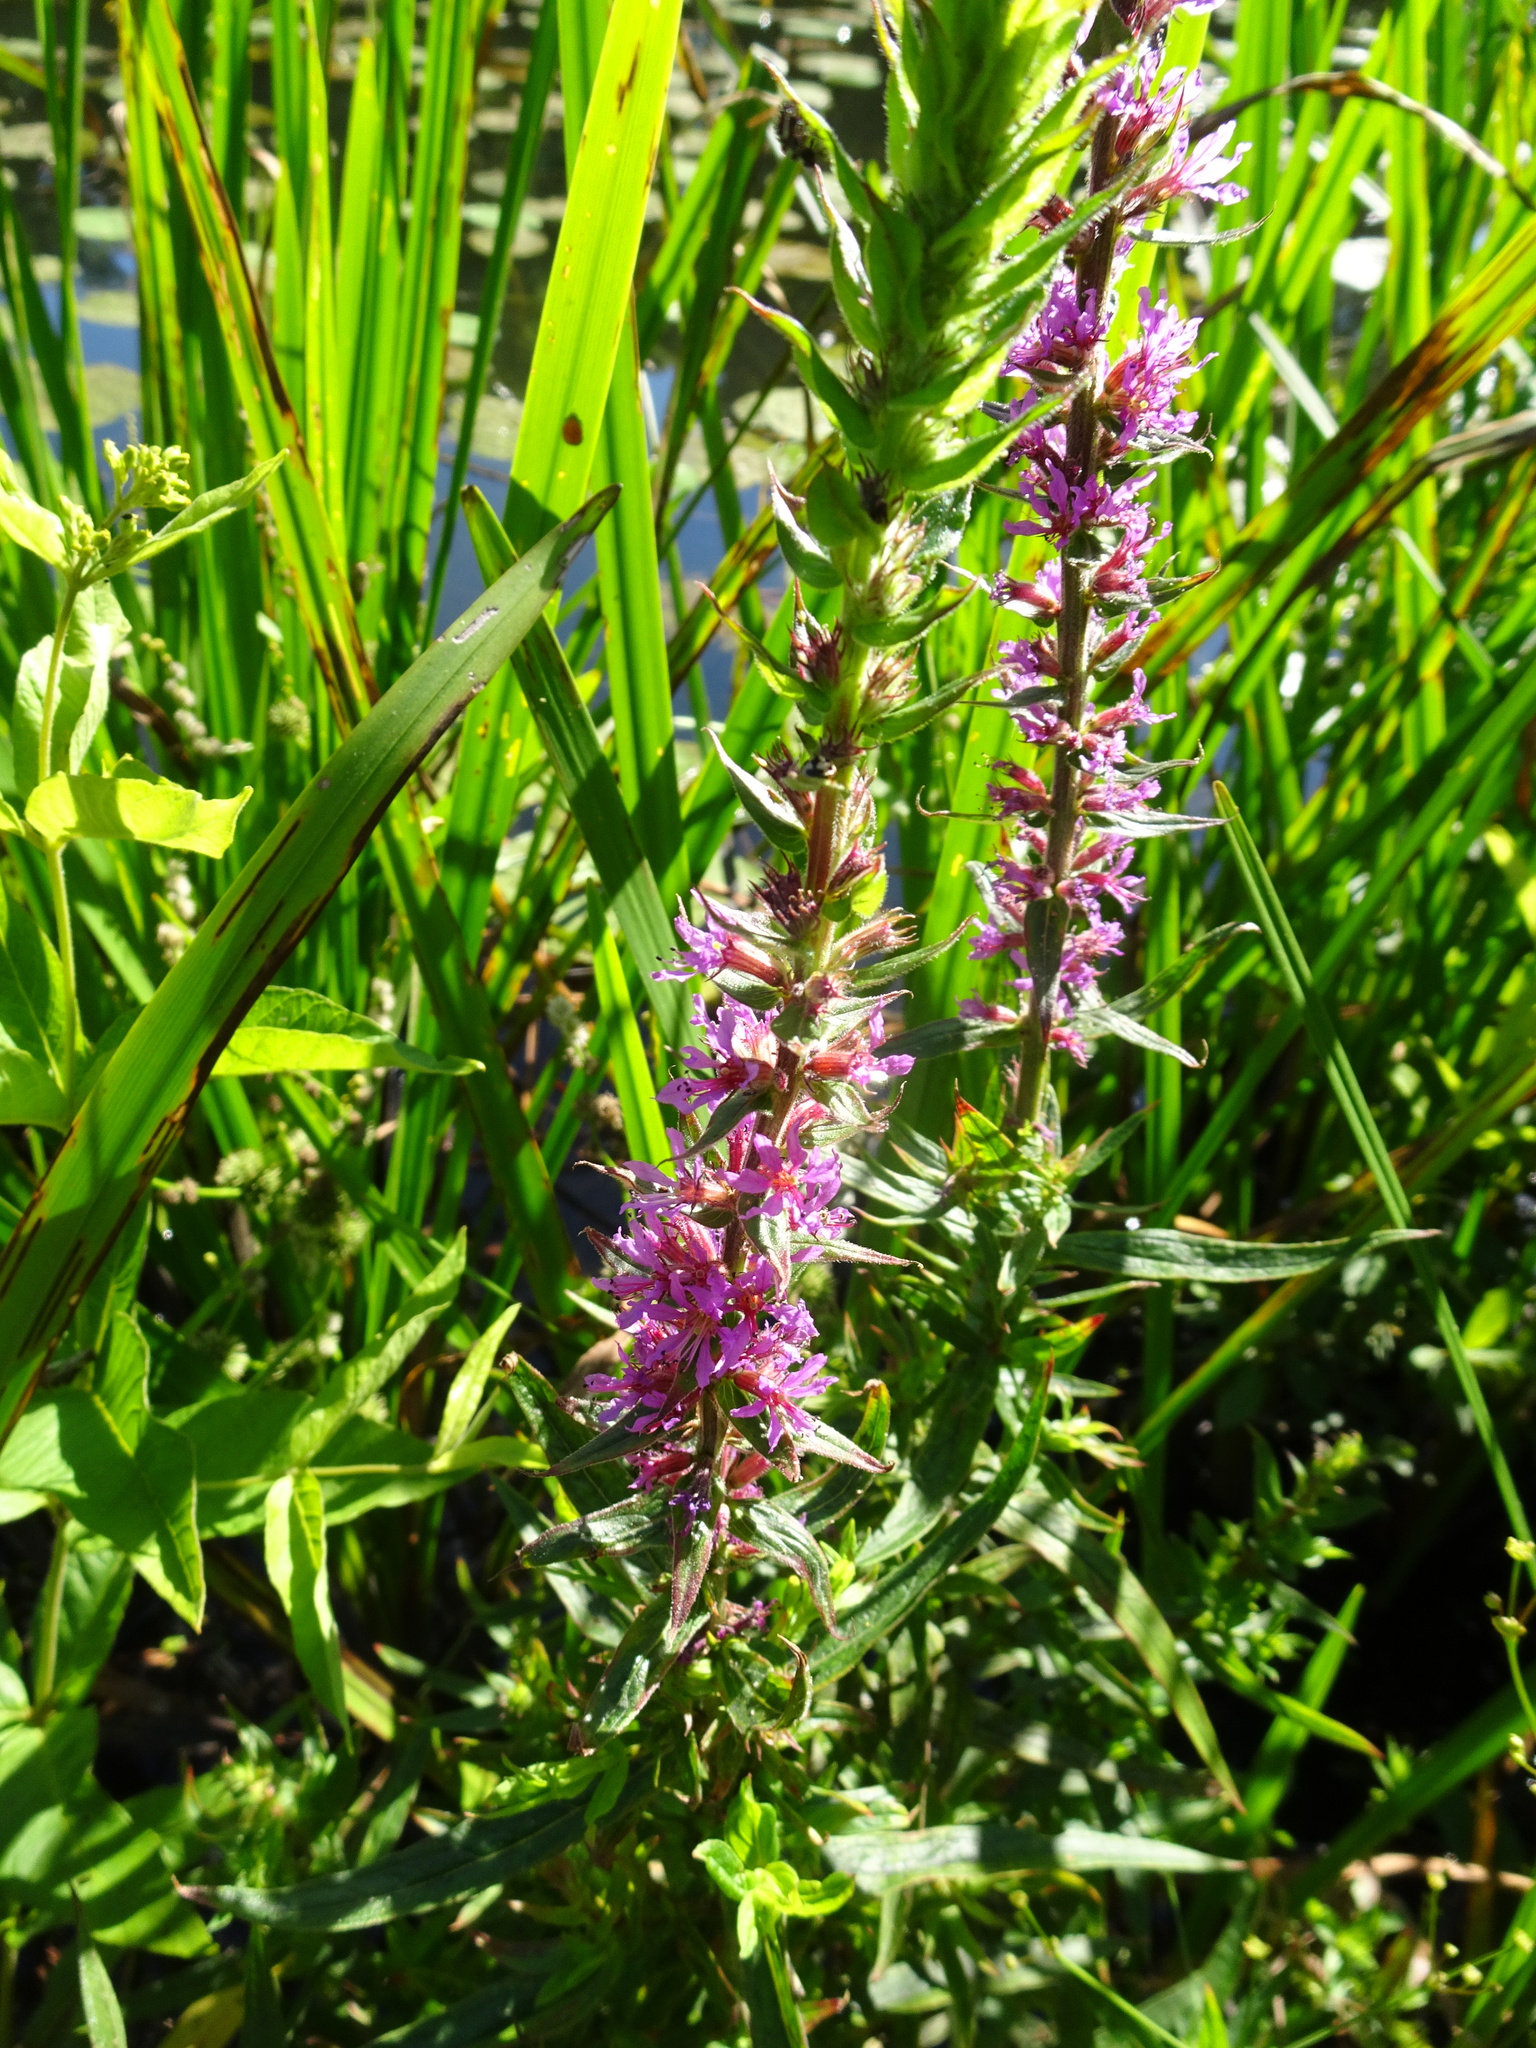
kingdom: Plantae
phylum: Tracheophyta
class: Magnoliopsida
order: Myrtales
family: Lythraceae
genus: Lythrum
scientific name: Lythrum salicaria
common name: Purple loosestrife
